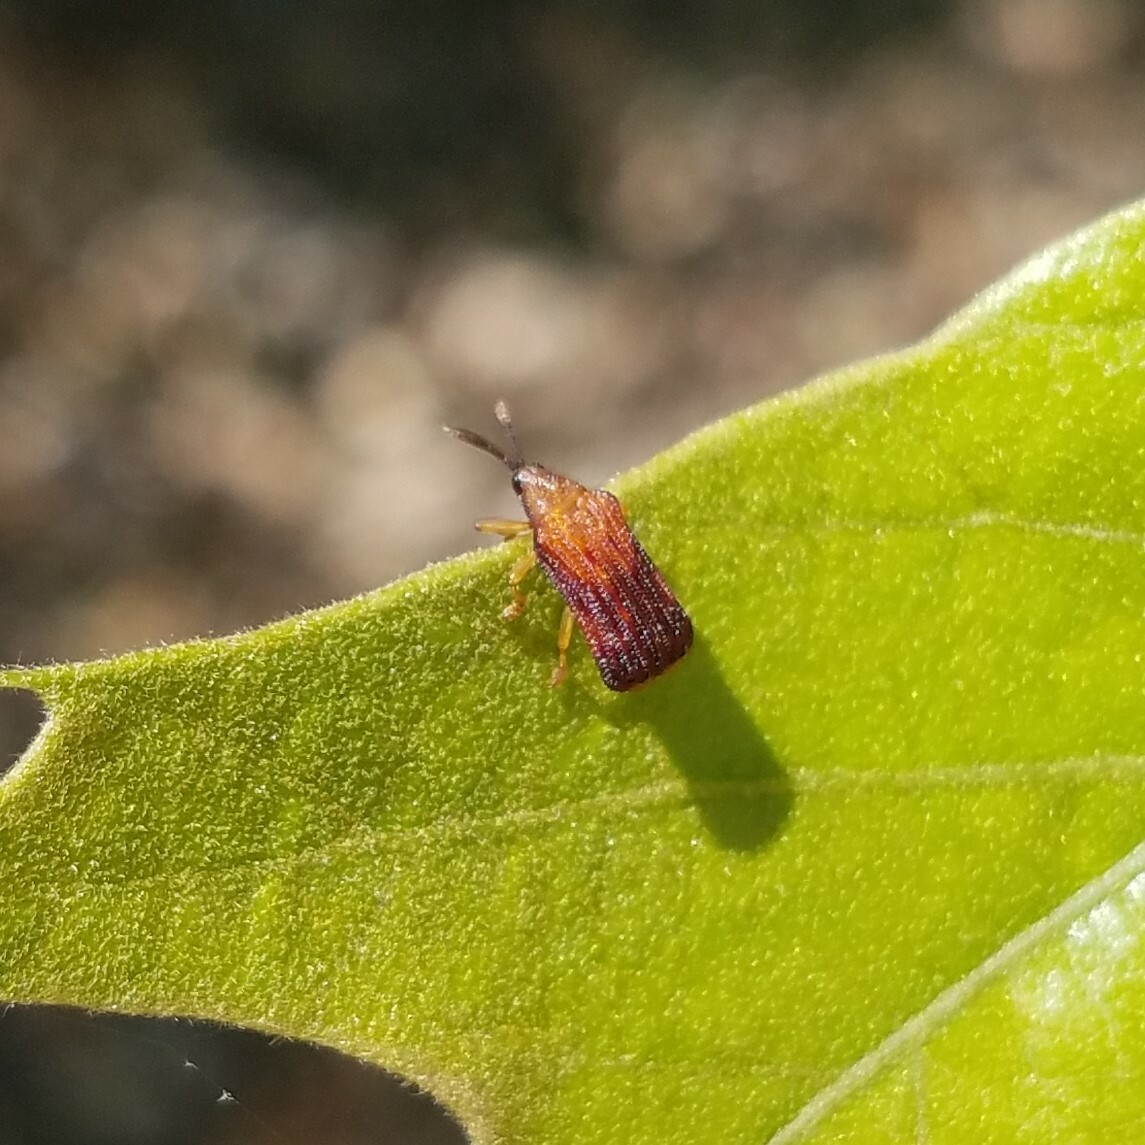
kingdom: Animalia
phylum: Arthropoda
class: Insecta
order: Coleoptera
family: Chrysomelidae
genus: Baliosus
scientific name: Baliosus nervosus
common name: Basswood leaf miner
